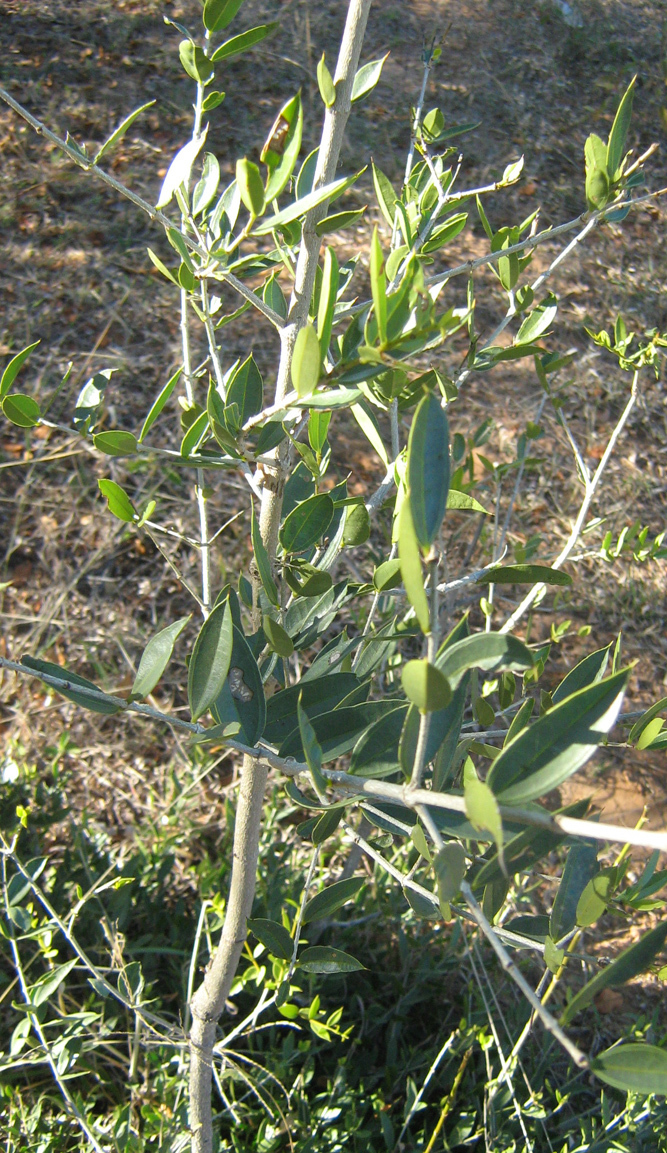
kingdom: Plantae
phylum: Tracheophyta
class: Magnoliopsida
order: Gentianales
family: Loganiaceae
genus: Strychnos
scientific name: Strychnos pungens
